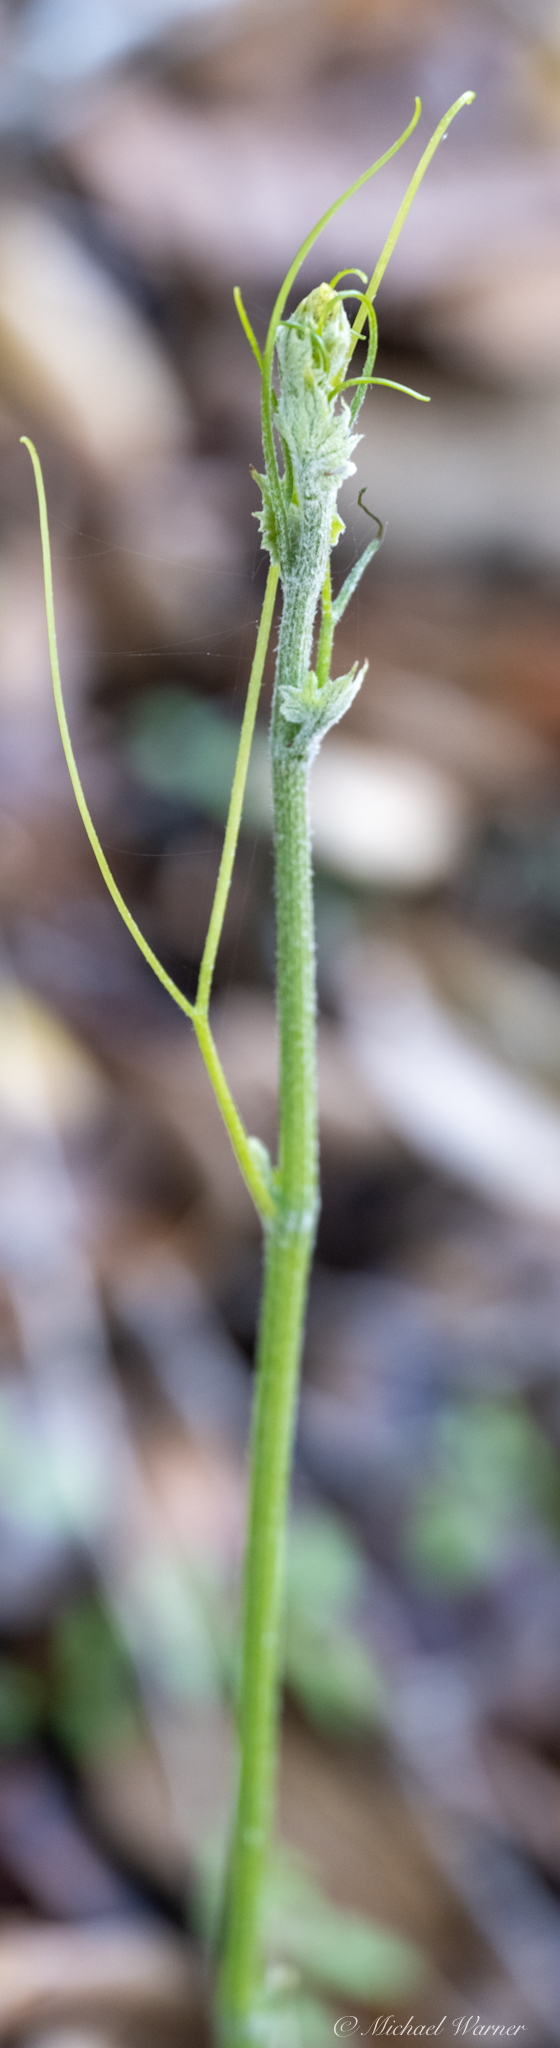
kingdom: Plantae
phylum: Tracheophyta
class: Magnoliopsida
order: Cucurbitales
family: Cucurbitaceae
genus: Marah
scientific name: Marah fabacea
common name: California manroot
